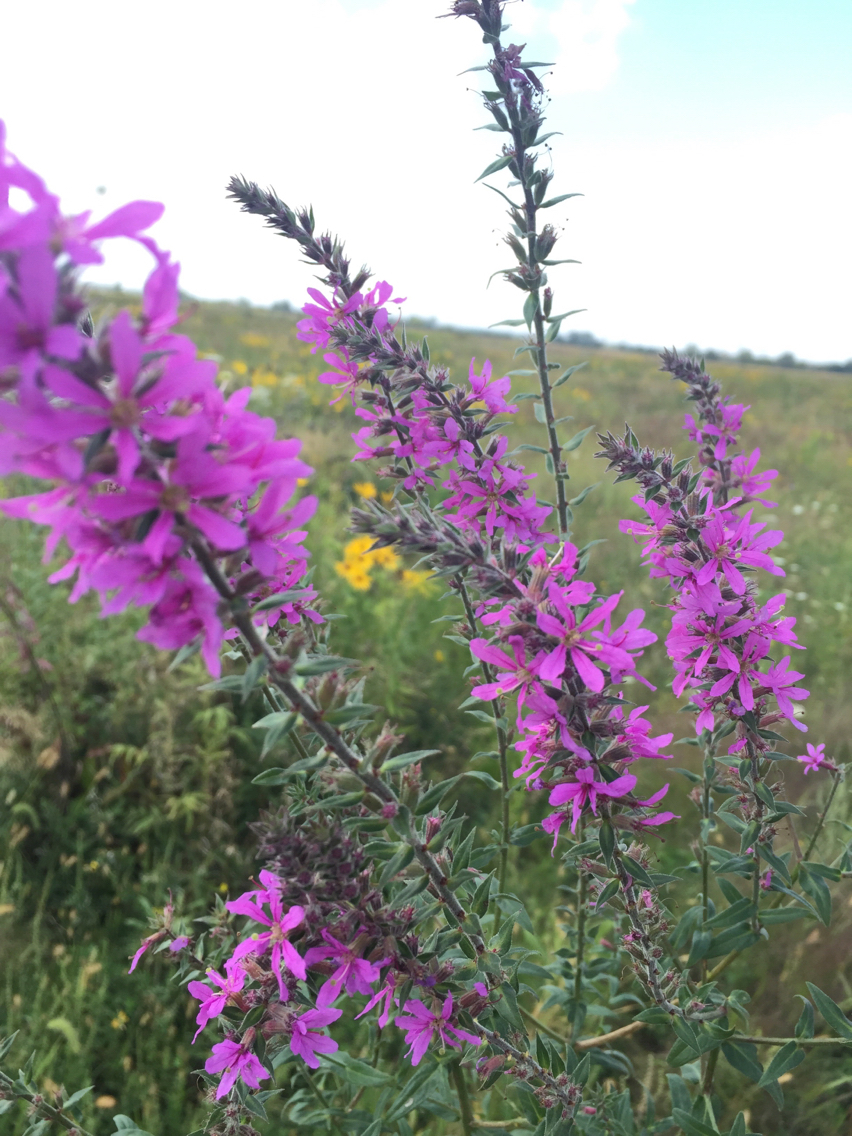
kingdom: Plantae
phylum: Tracheophyta
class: Magnoliopsida
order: Myrtales
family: Lythraceae
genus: Lythrum
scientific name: Lythrum salicaria
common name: Purple loosestrife
